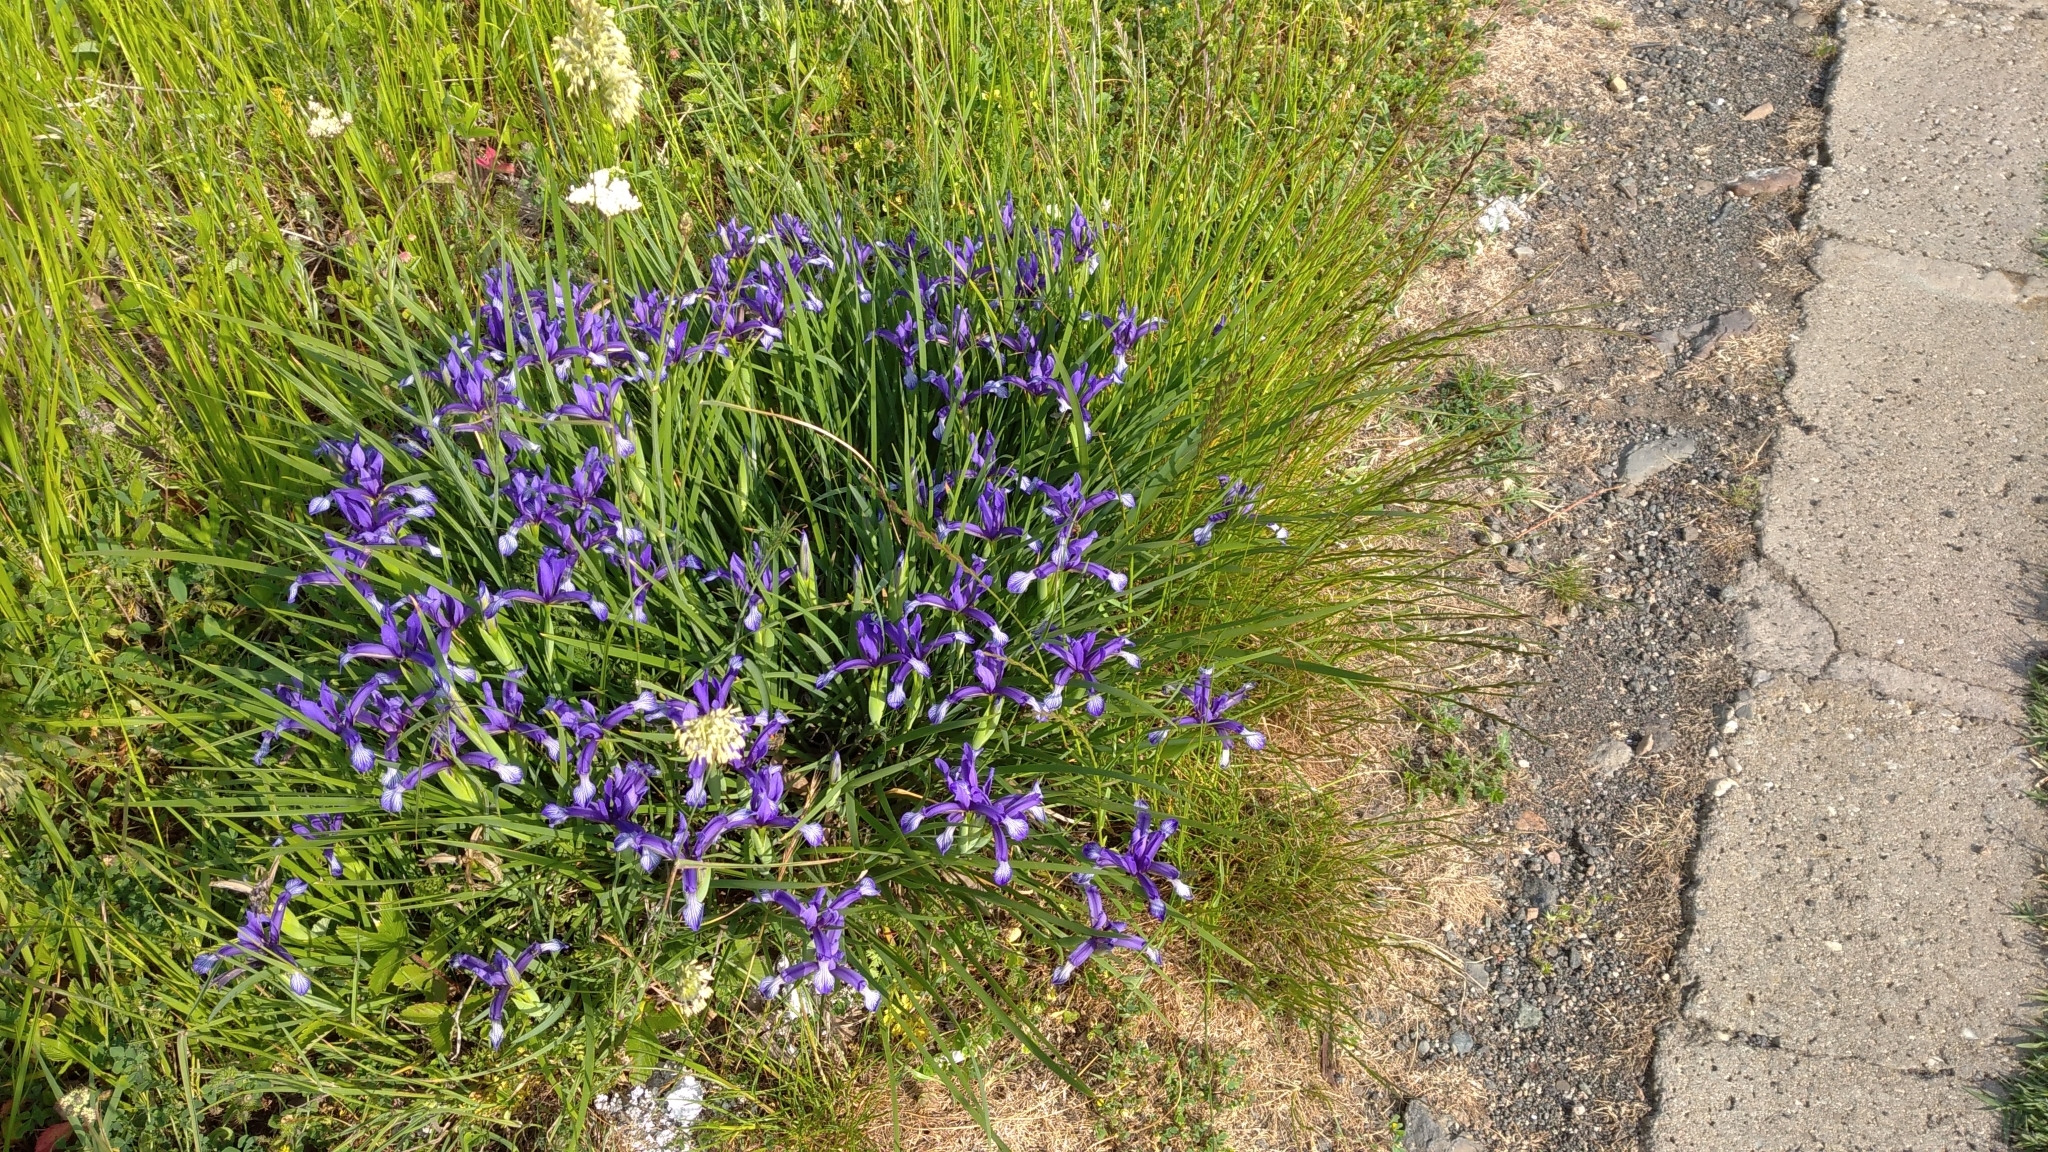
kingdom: Plantae
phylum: Tracheophyta
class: Liliopsida
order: Asparagales
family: Iridaceae
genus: Iris
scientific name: Iris sintenisii
